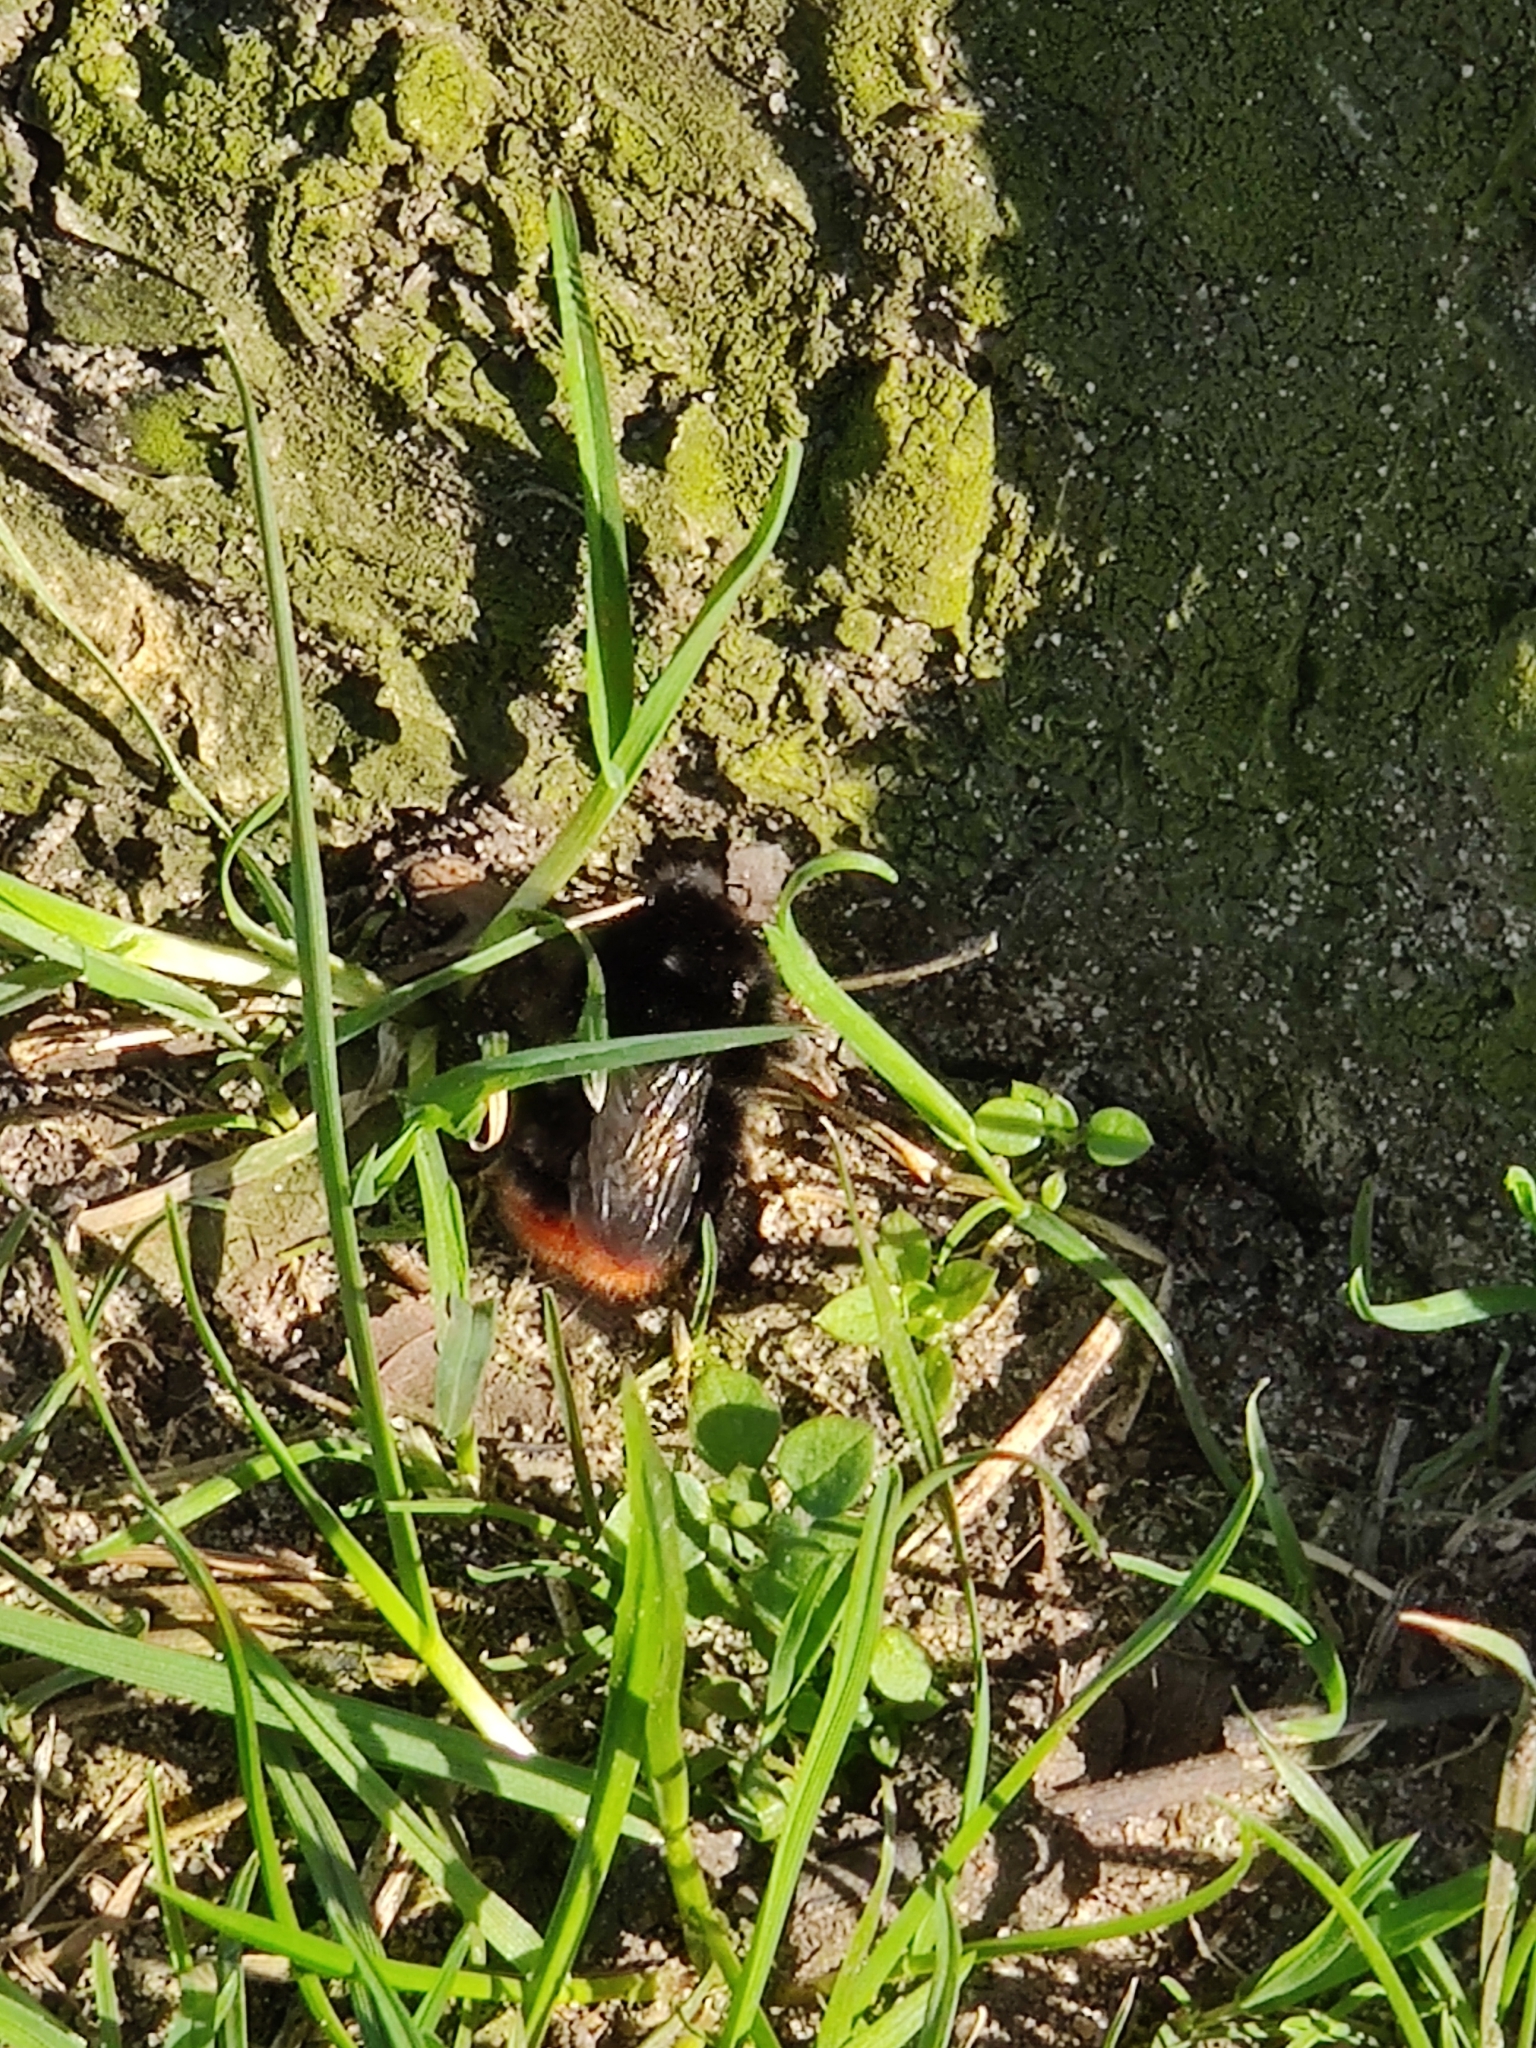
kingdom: Animalia
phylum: Arthropoda
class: Insecta
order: Hymenoptera
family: Apidae
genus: Bombus
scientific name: Bombus lapidarius
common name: Large red-tailed humble-bee
